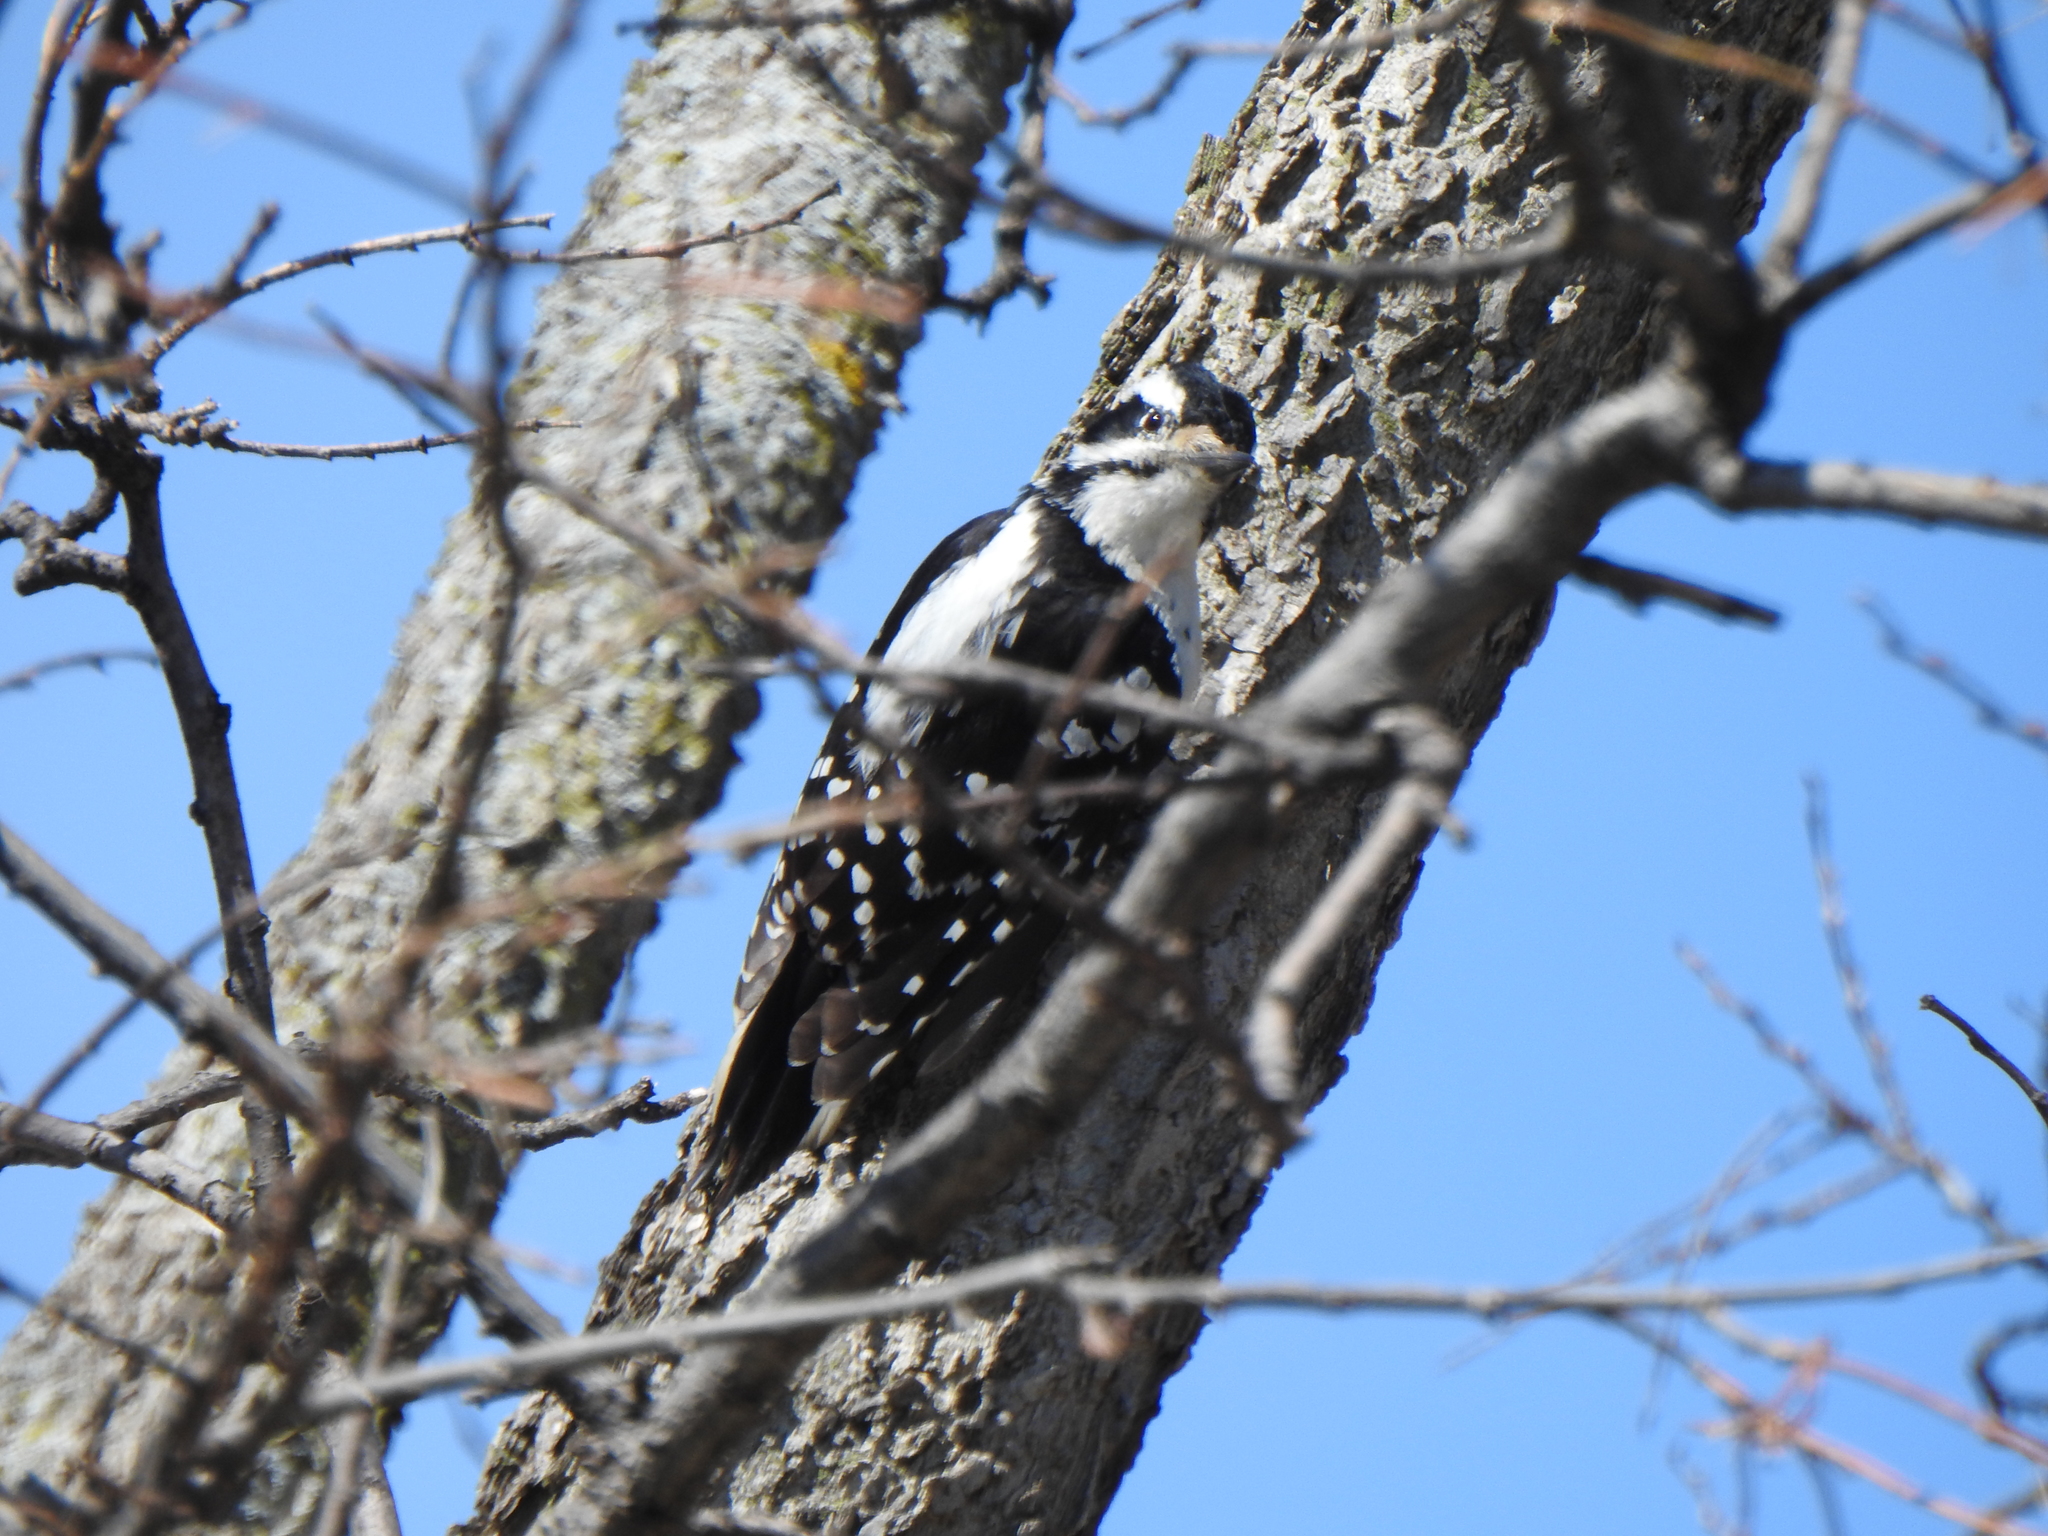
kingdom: Animalia
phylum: Chordata
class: Aves
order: Piciformes
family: Picidae
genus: Leuconotopicus
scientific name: Leuconotopicus villosus
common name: Hairy woodpecker
